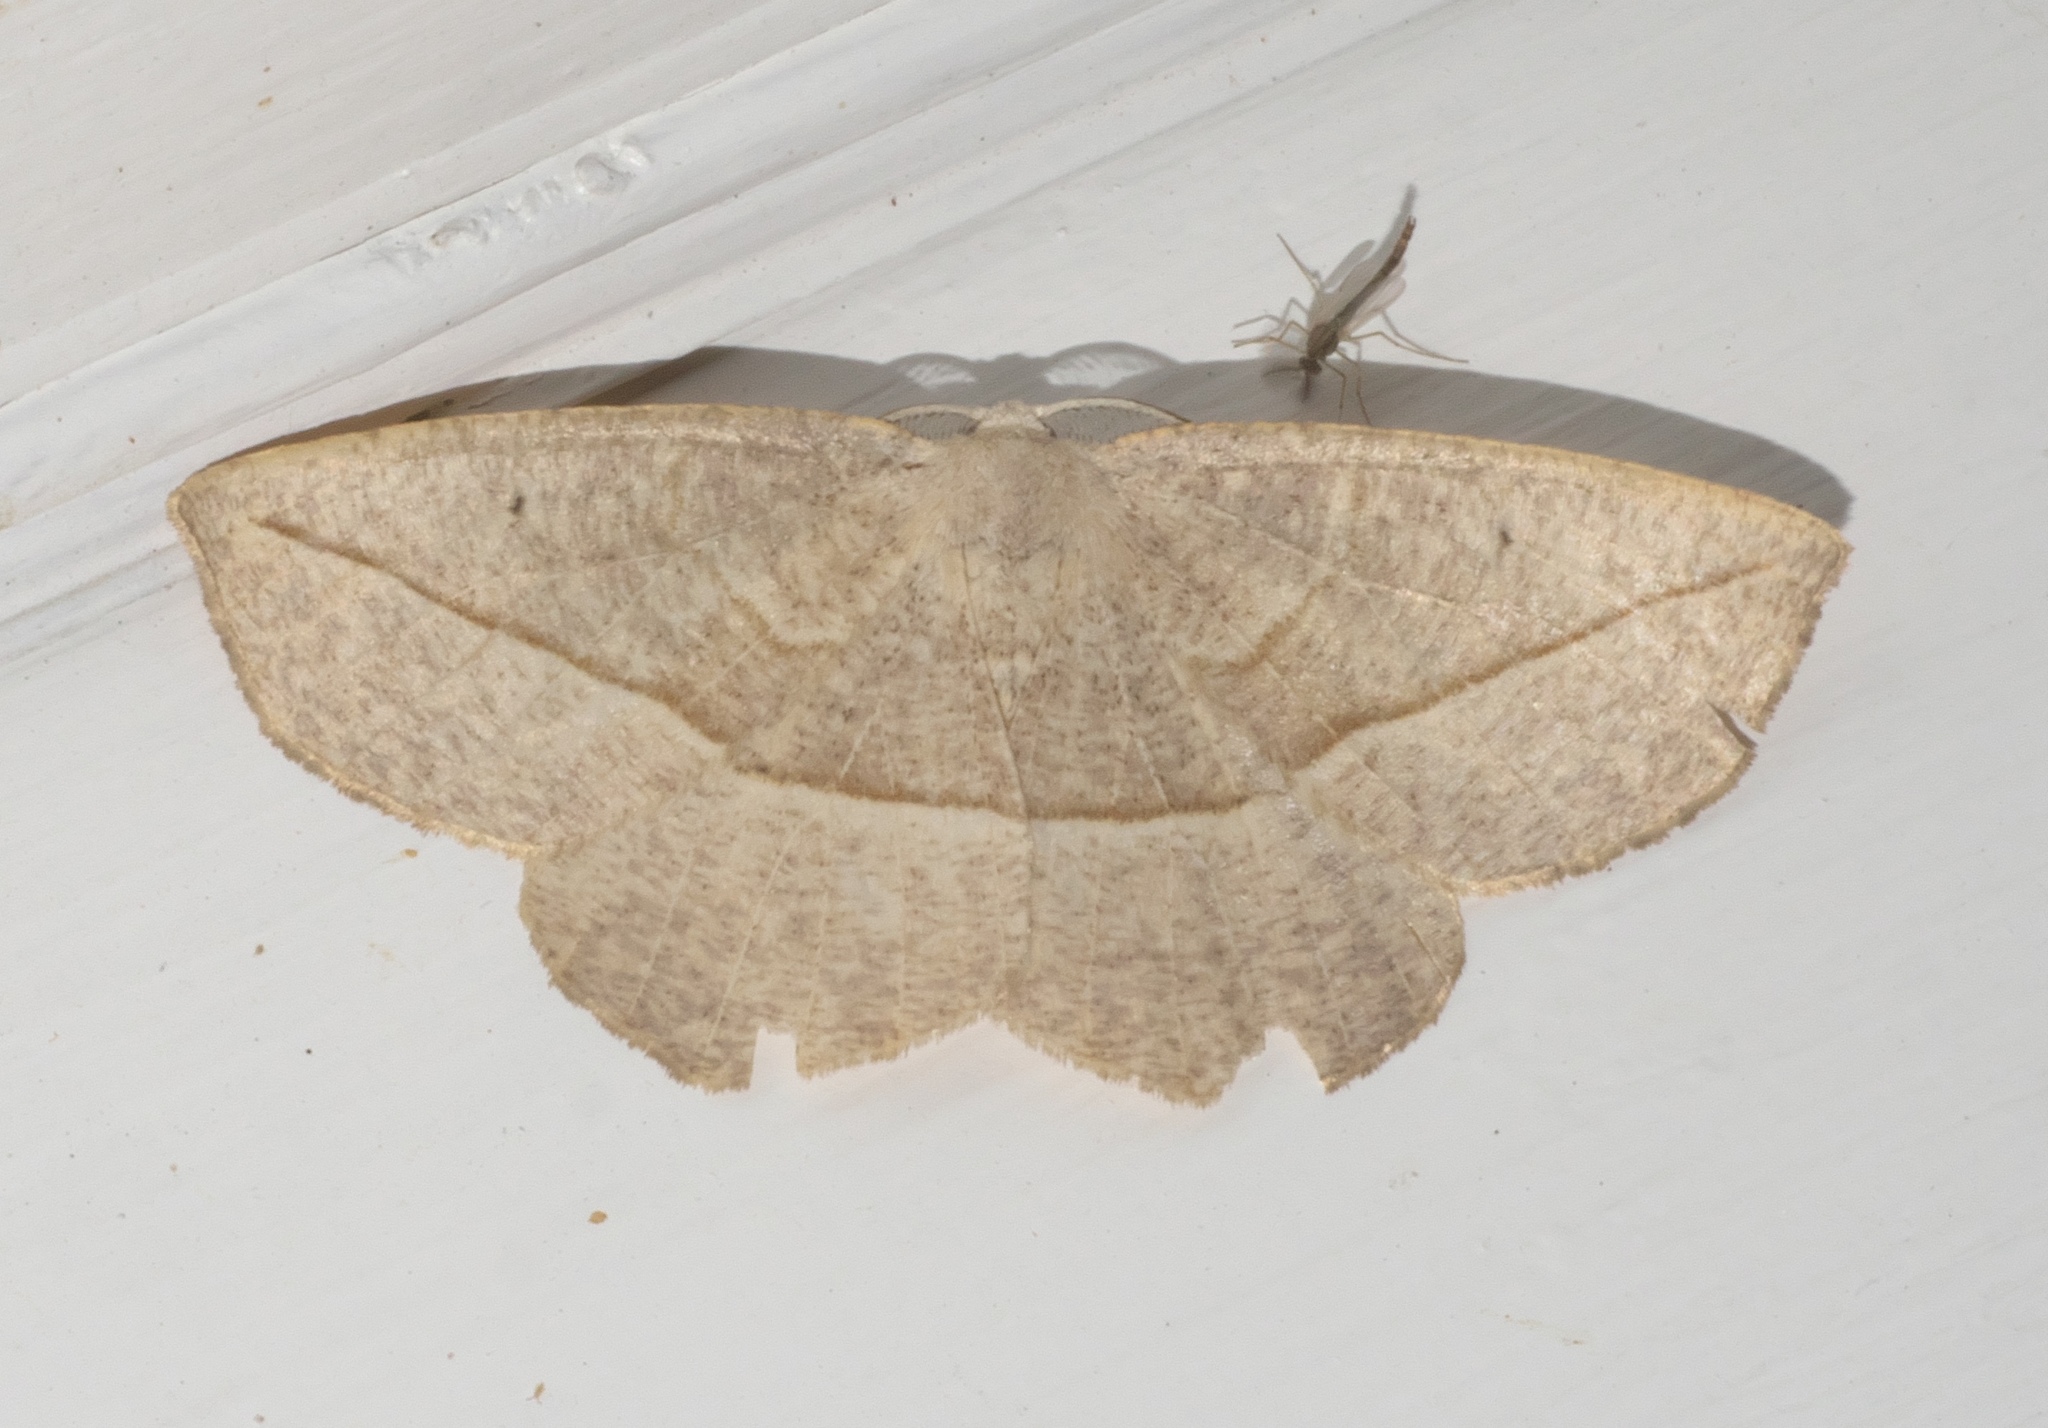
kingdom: Animalia
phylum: Arthropoda
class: Insecta
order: Lepidoptera
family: Geometridae
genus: Eusarca
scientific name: Eusarca confusaria
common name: Confused eusarca
